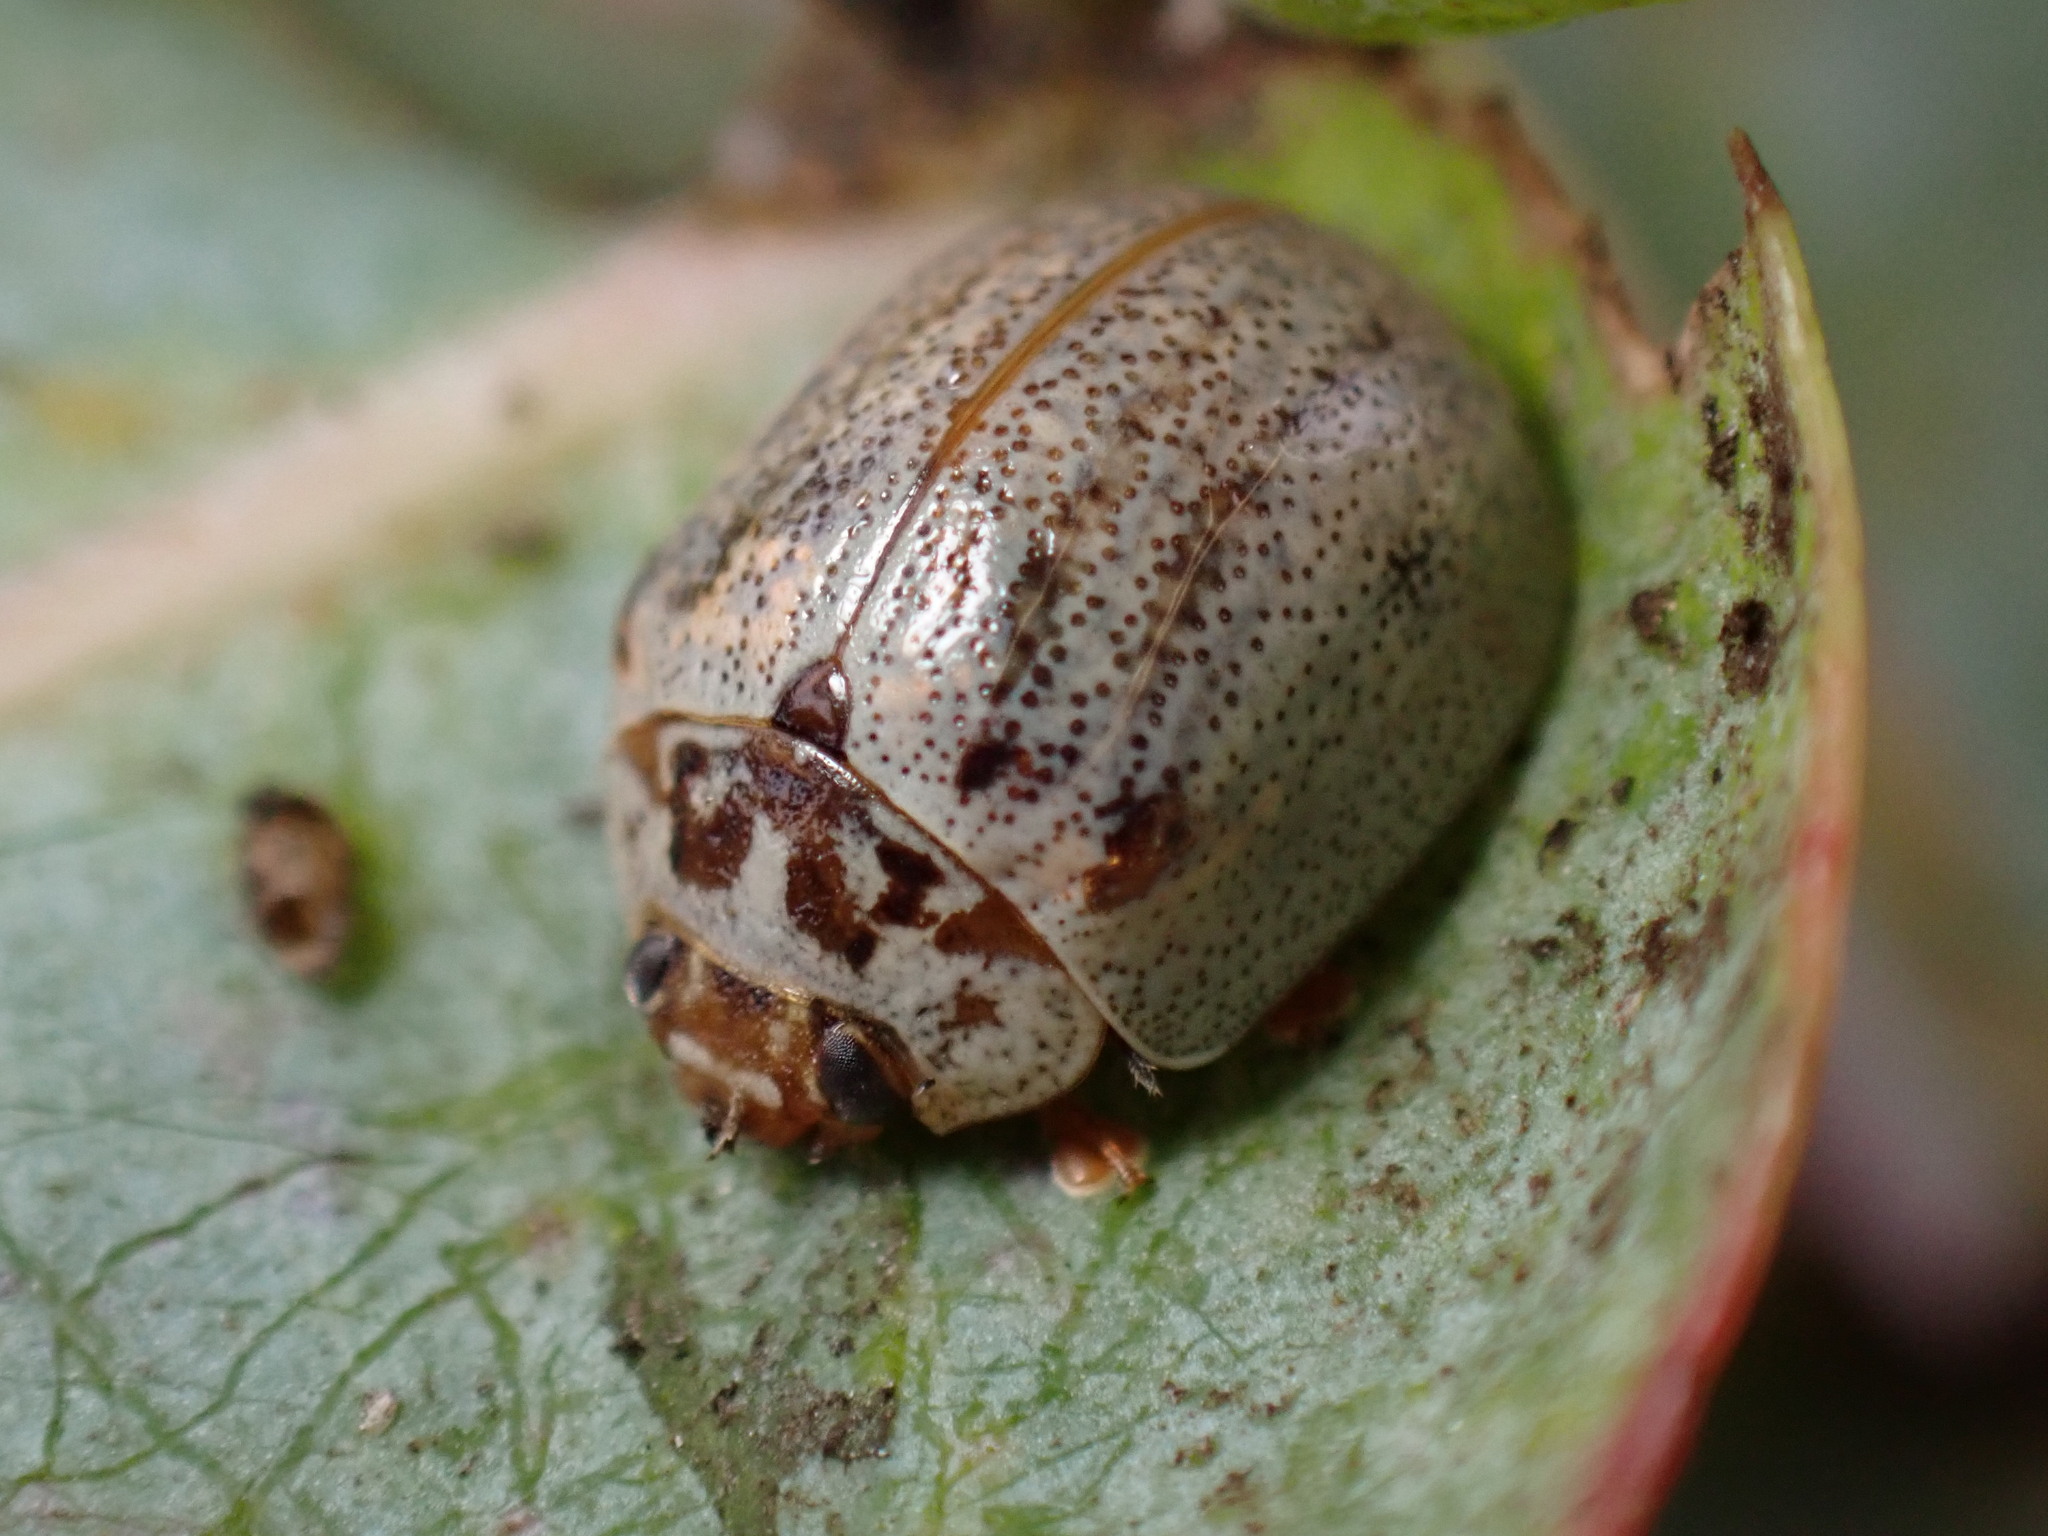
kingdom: Animalia
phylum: Arthropoda
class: Insecta
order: Coleoptera
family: Chrysomelidae
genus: Paropsisterna
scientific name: Paropsisterna m-fuscum
